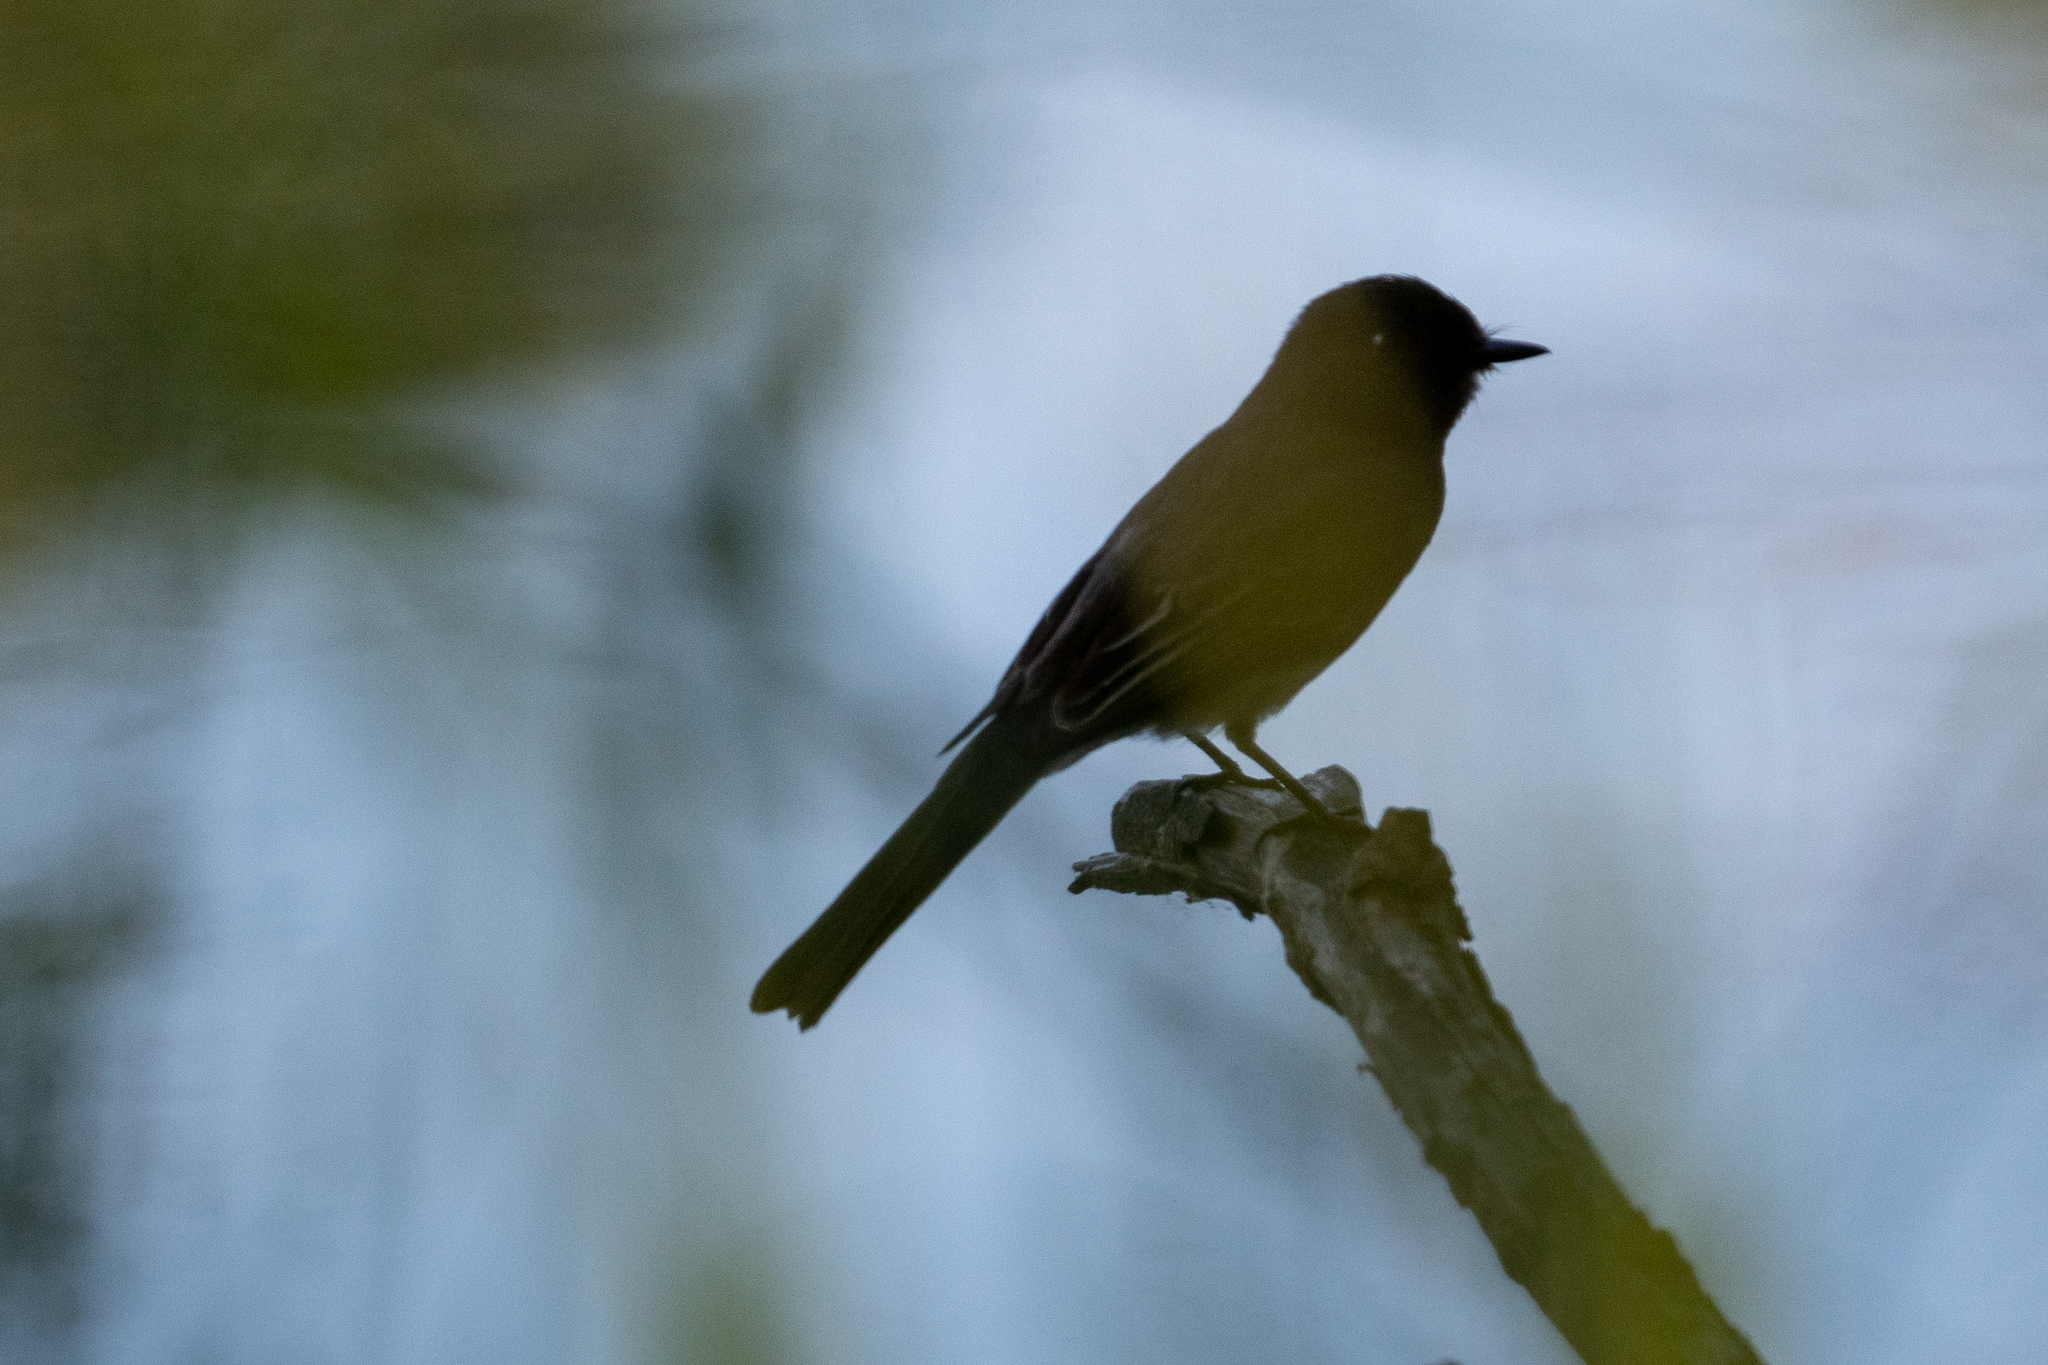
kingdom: Animalia
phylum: Chordata
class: Aves
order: Passeriformes
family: Tyrannidae
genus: Sayornis
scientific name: Sayornis nigricans
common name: Black phoebe
